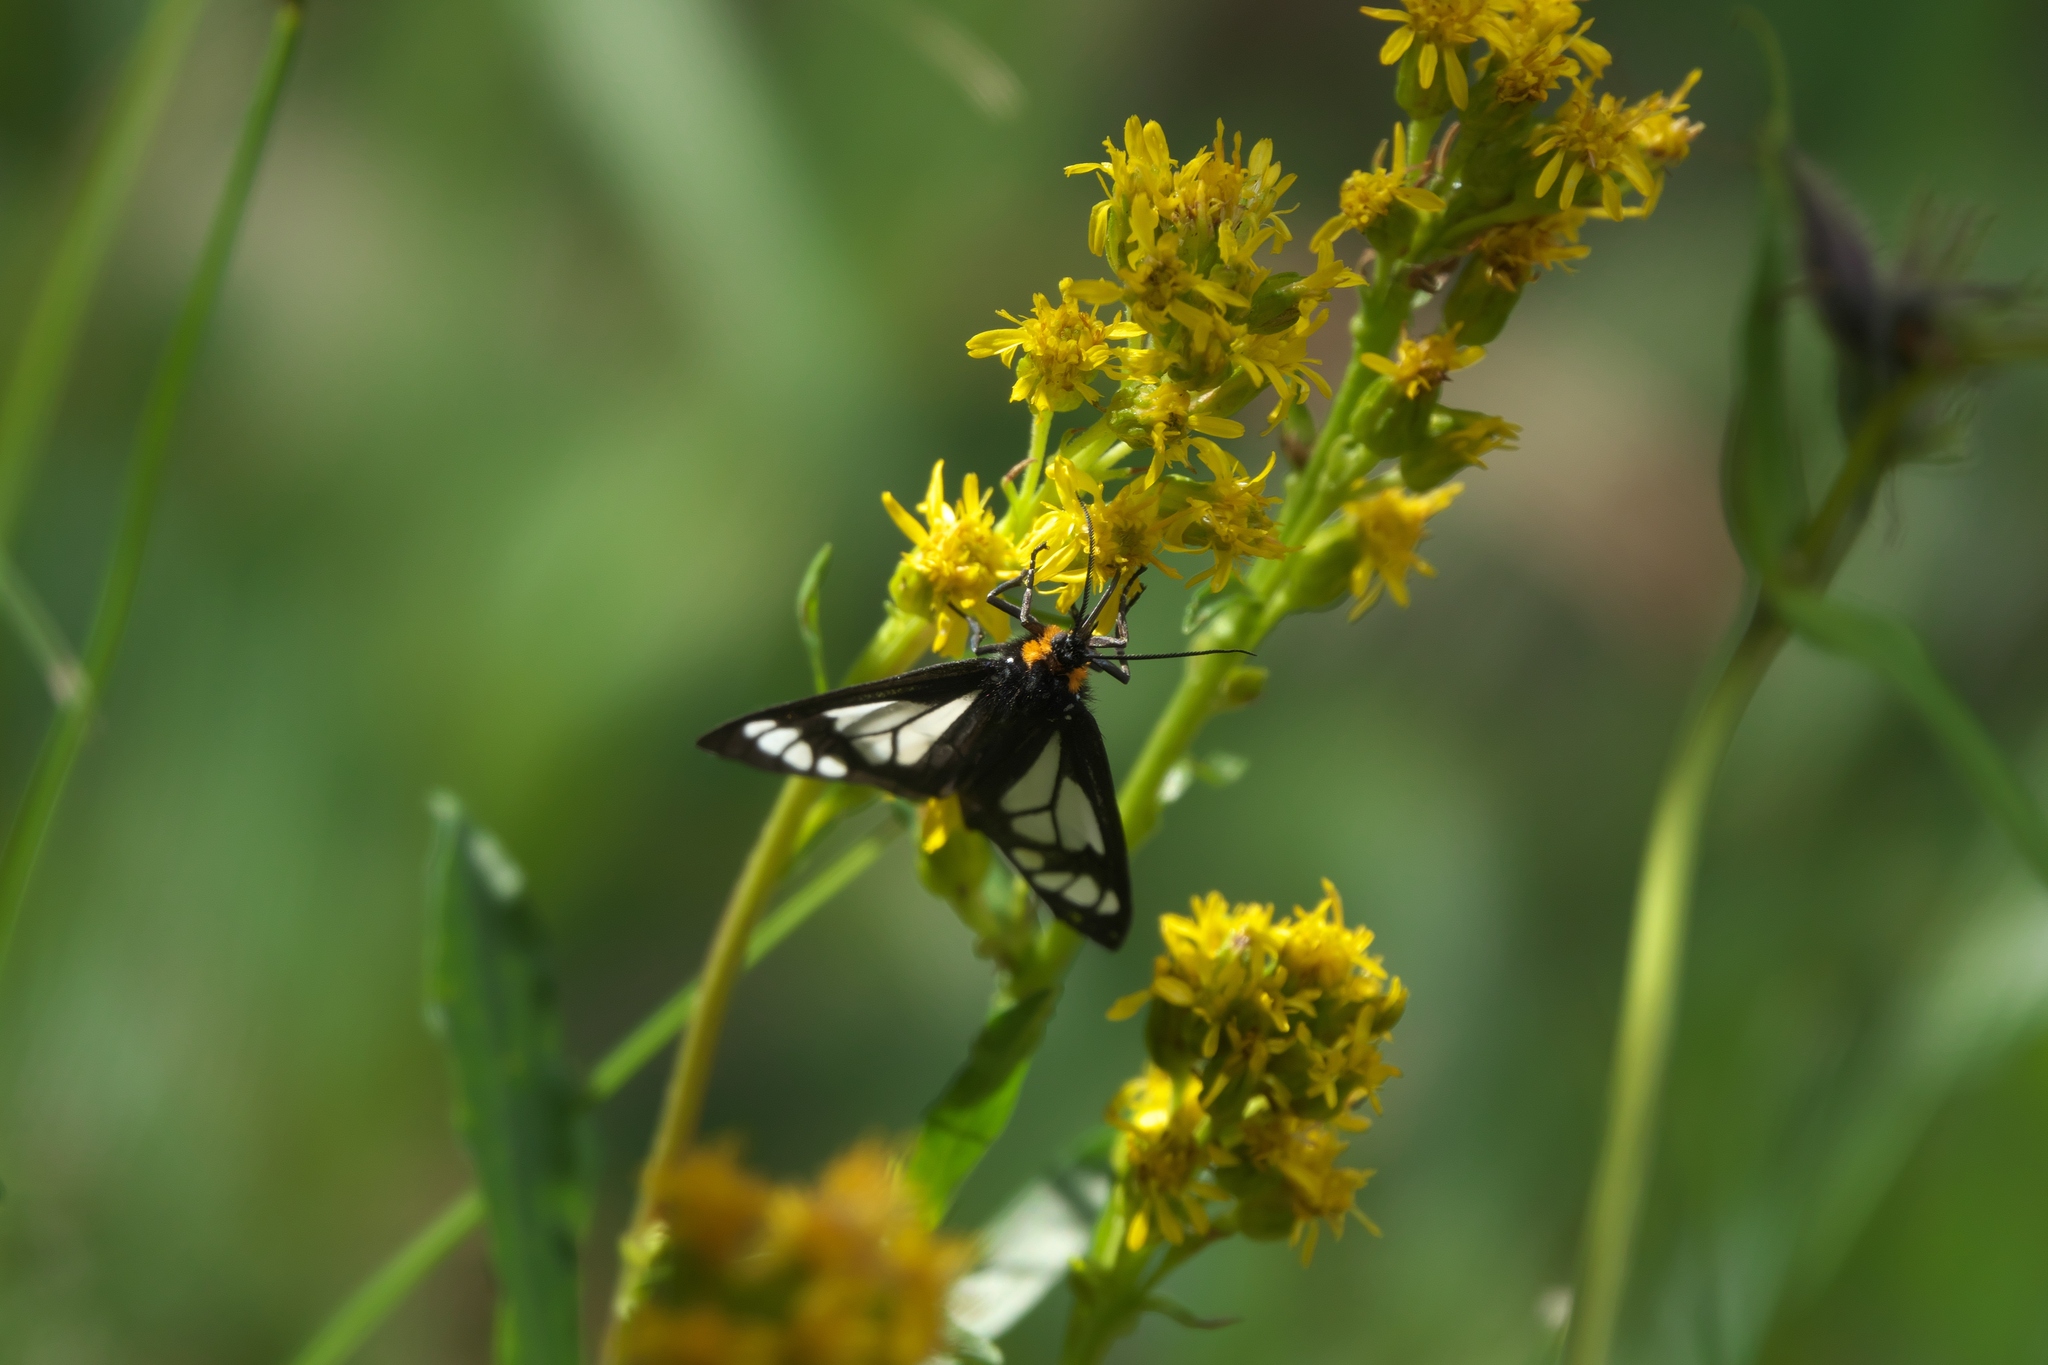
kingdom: Animalia
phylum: Arthropoda
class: Insecta
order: Lepidoptera
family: Erebidae
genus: Gnophaela
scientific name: Gnophaela vermiculata
